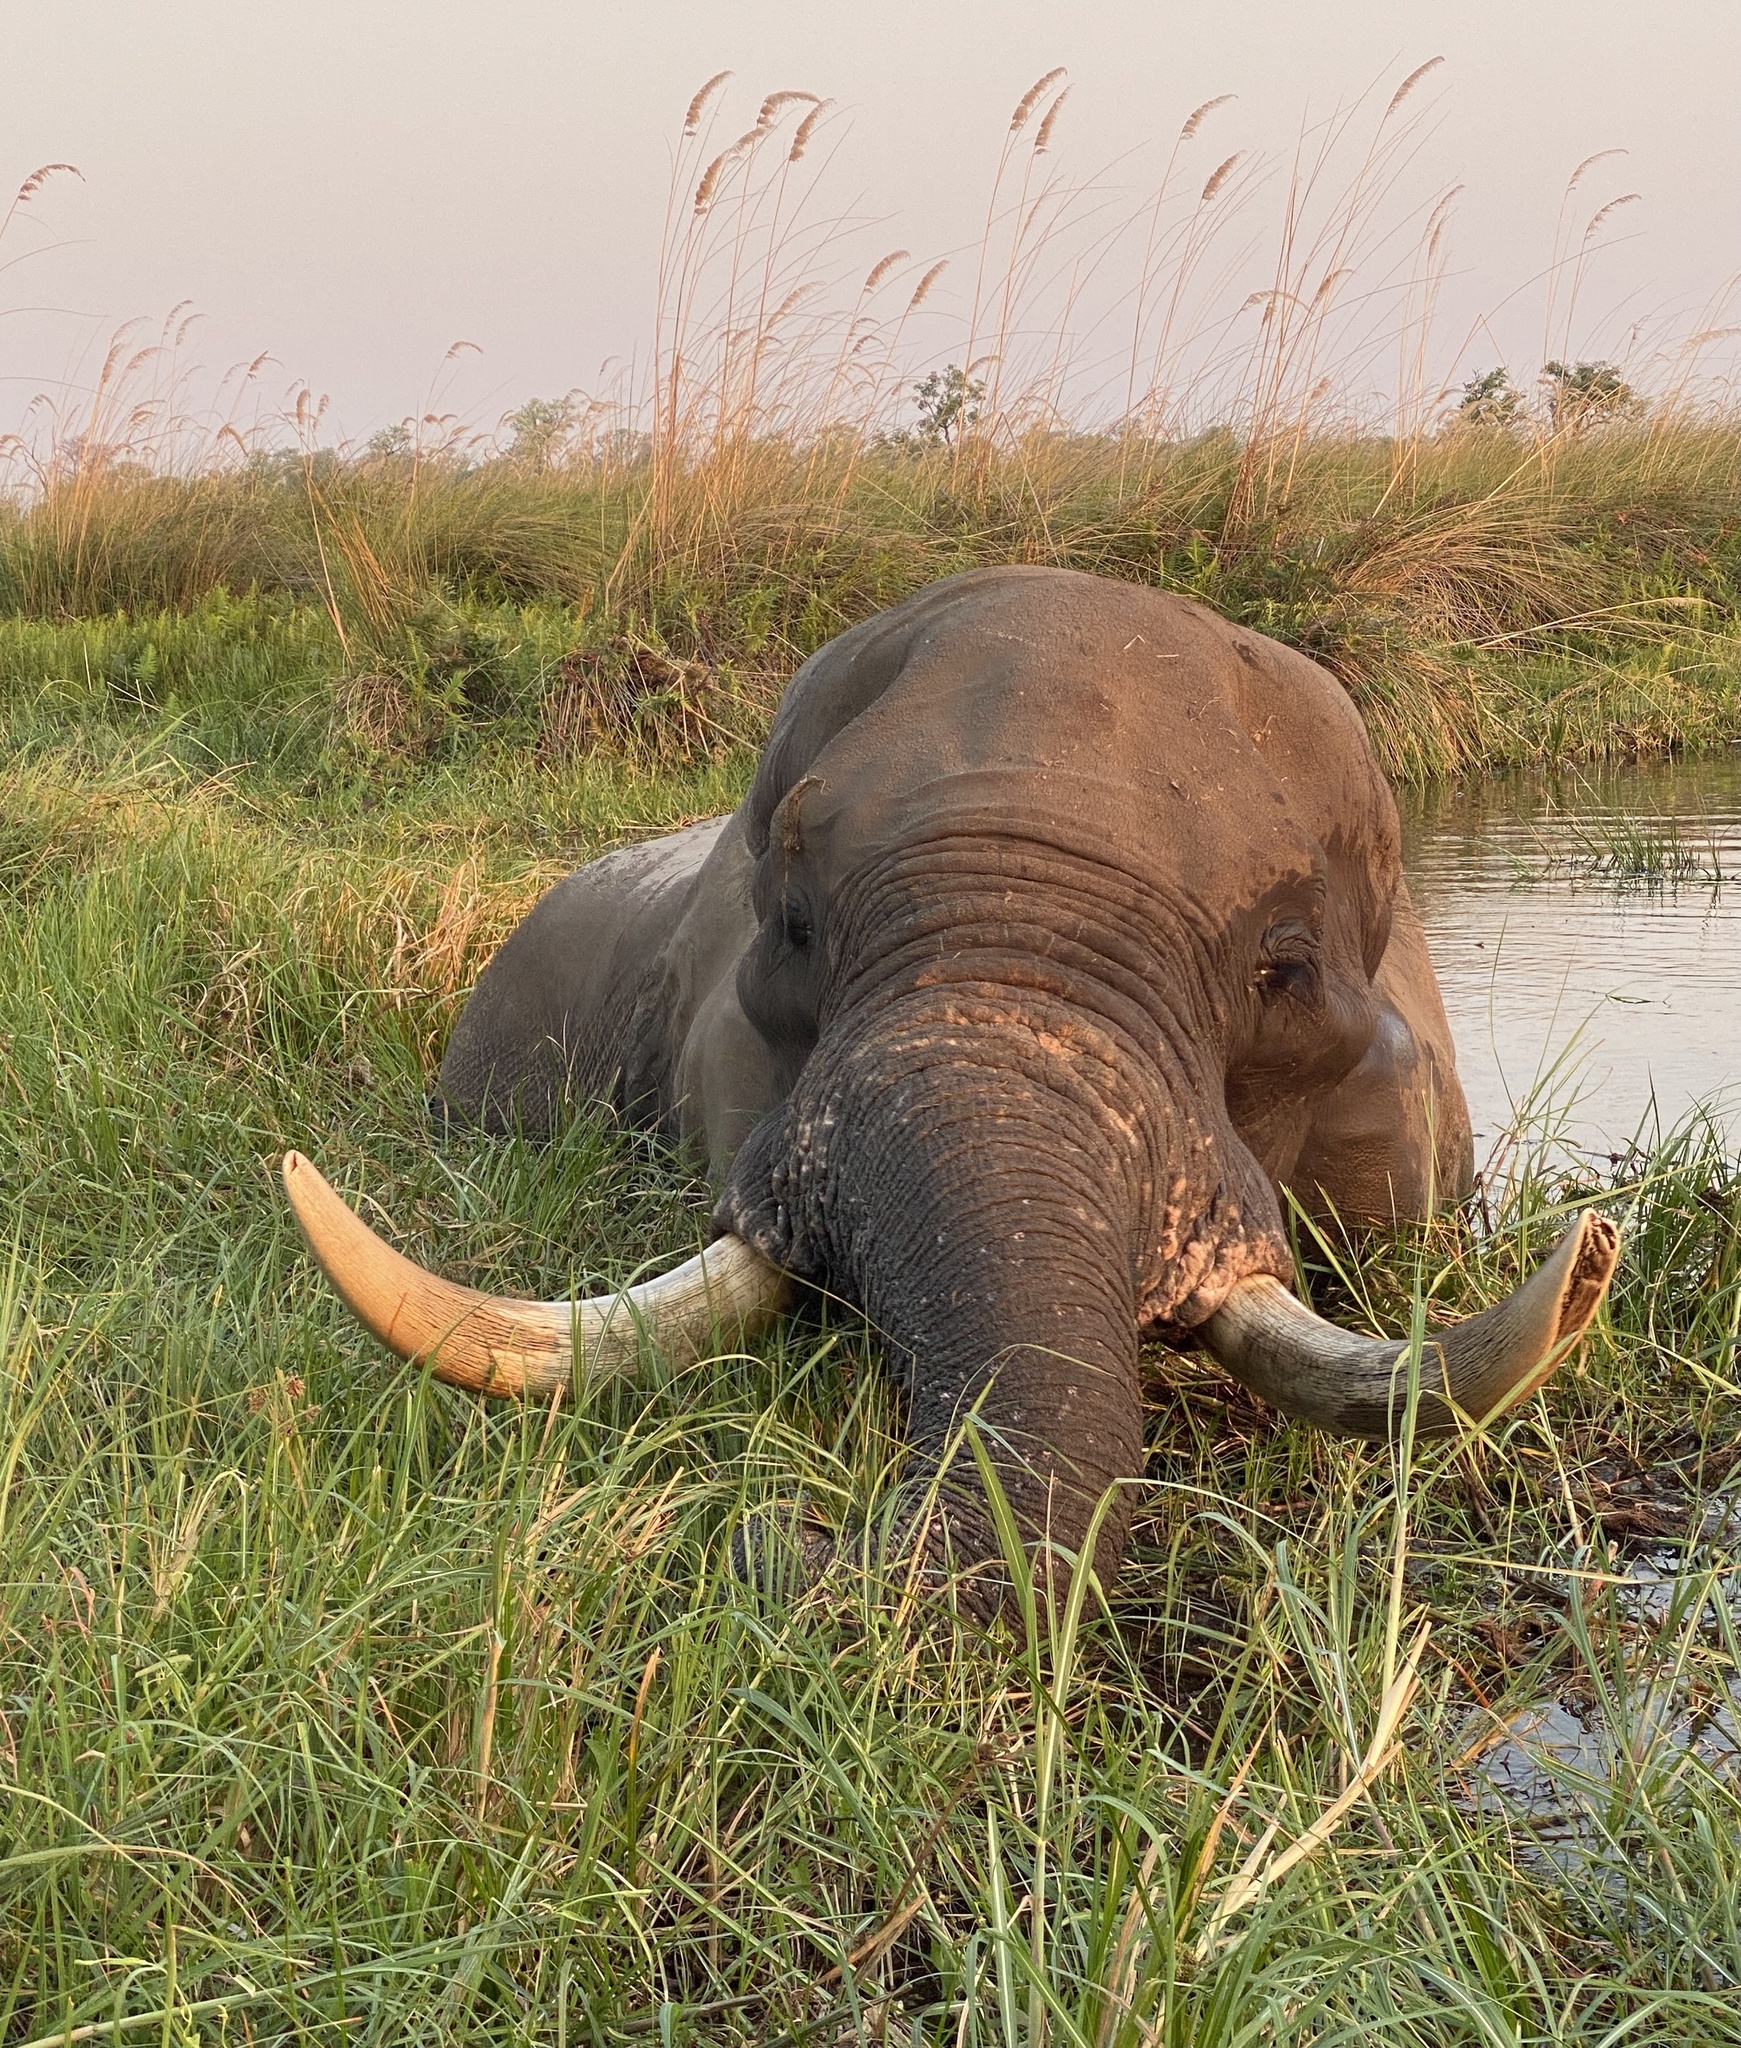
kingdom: Animalia
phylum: Chordata
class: Mammalia
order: Proboscidea
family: Elephantidae
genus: Loxodonta
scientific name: Loxodonta africana
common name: African elephant
